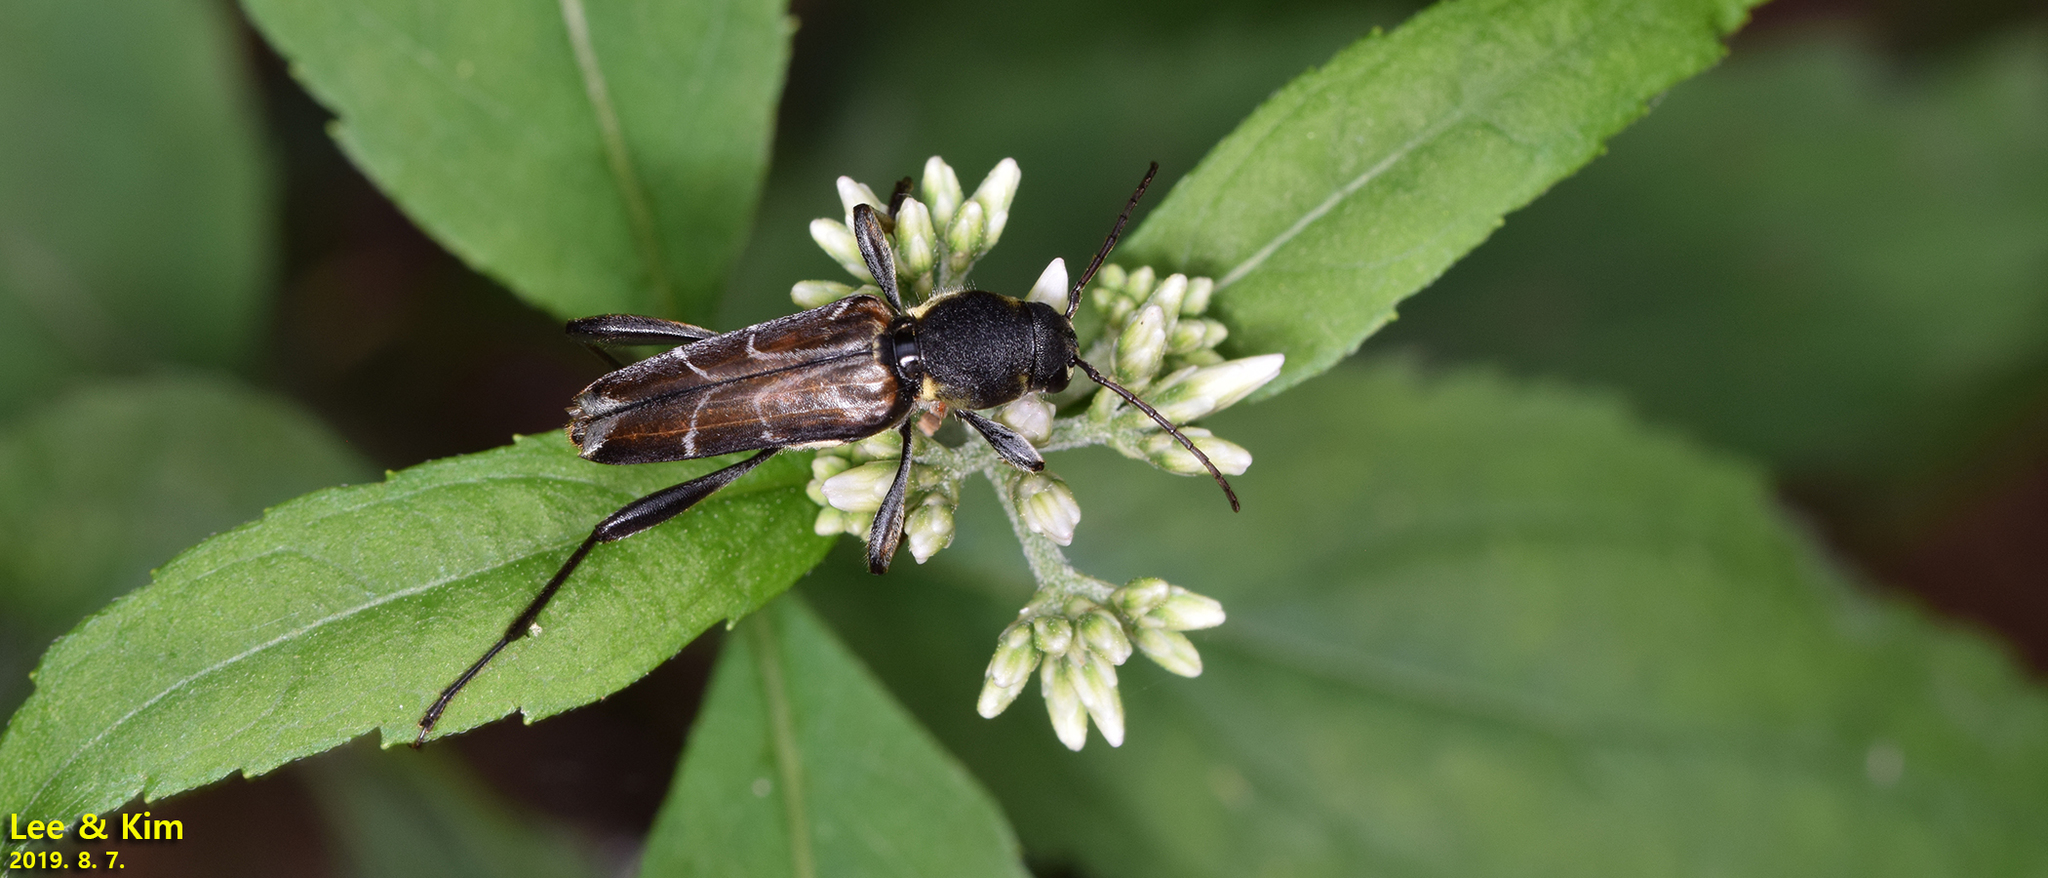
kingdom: Animalia
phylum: Arthropoda
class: Insecta
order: Coleoptera
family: Cerambycidae
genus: Xylotrechus
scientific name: Xylotrechus cuneipennis
